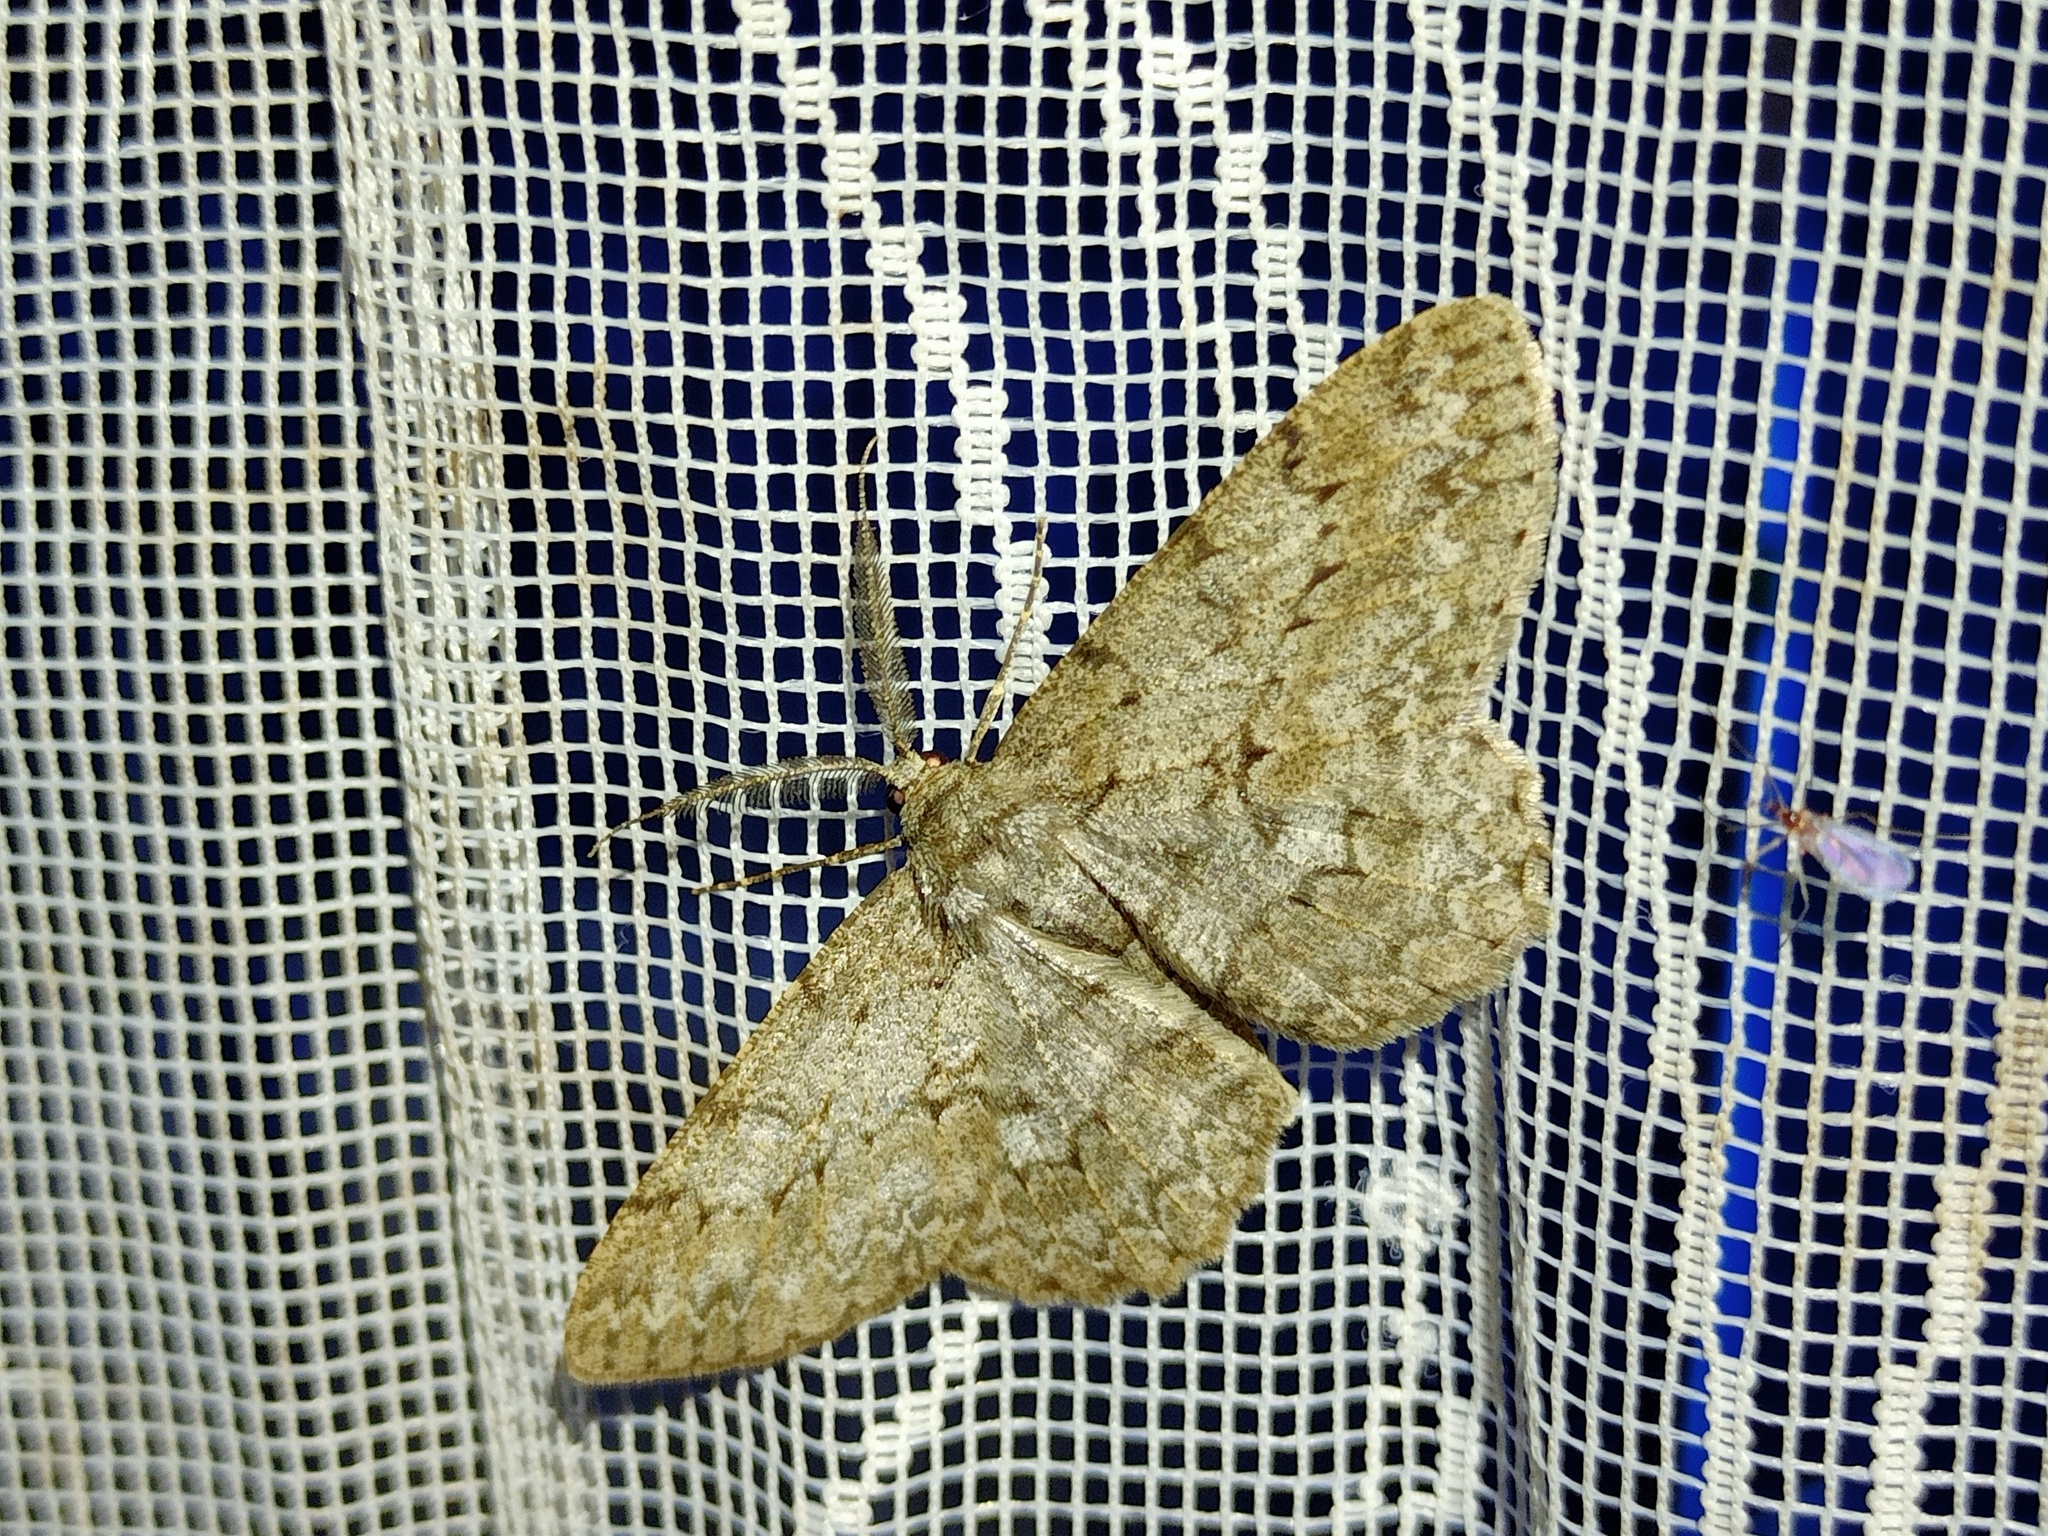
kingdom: Animalia
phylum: Arthropoda
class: Insecta
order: Lepidoptera
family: Geometridae
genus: Hypomecis
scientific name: Hypomecis punctinalis
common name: Pale oak beauty
